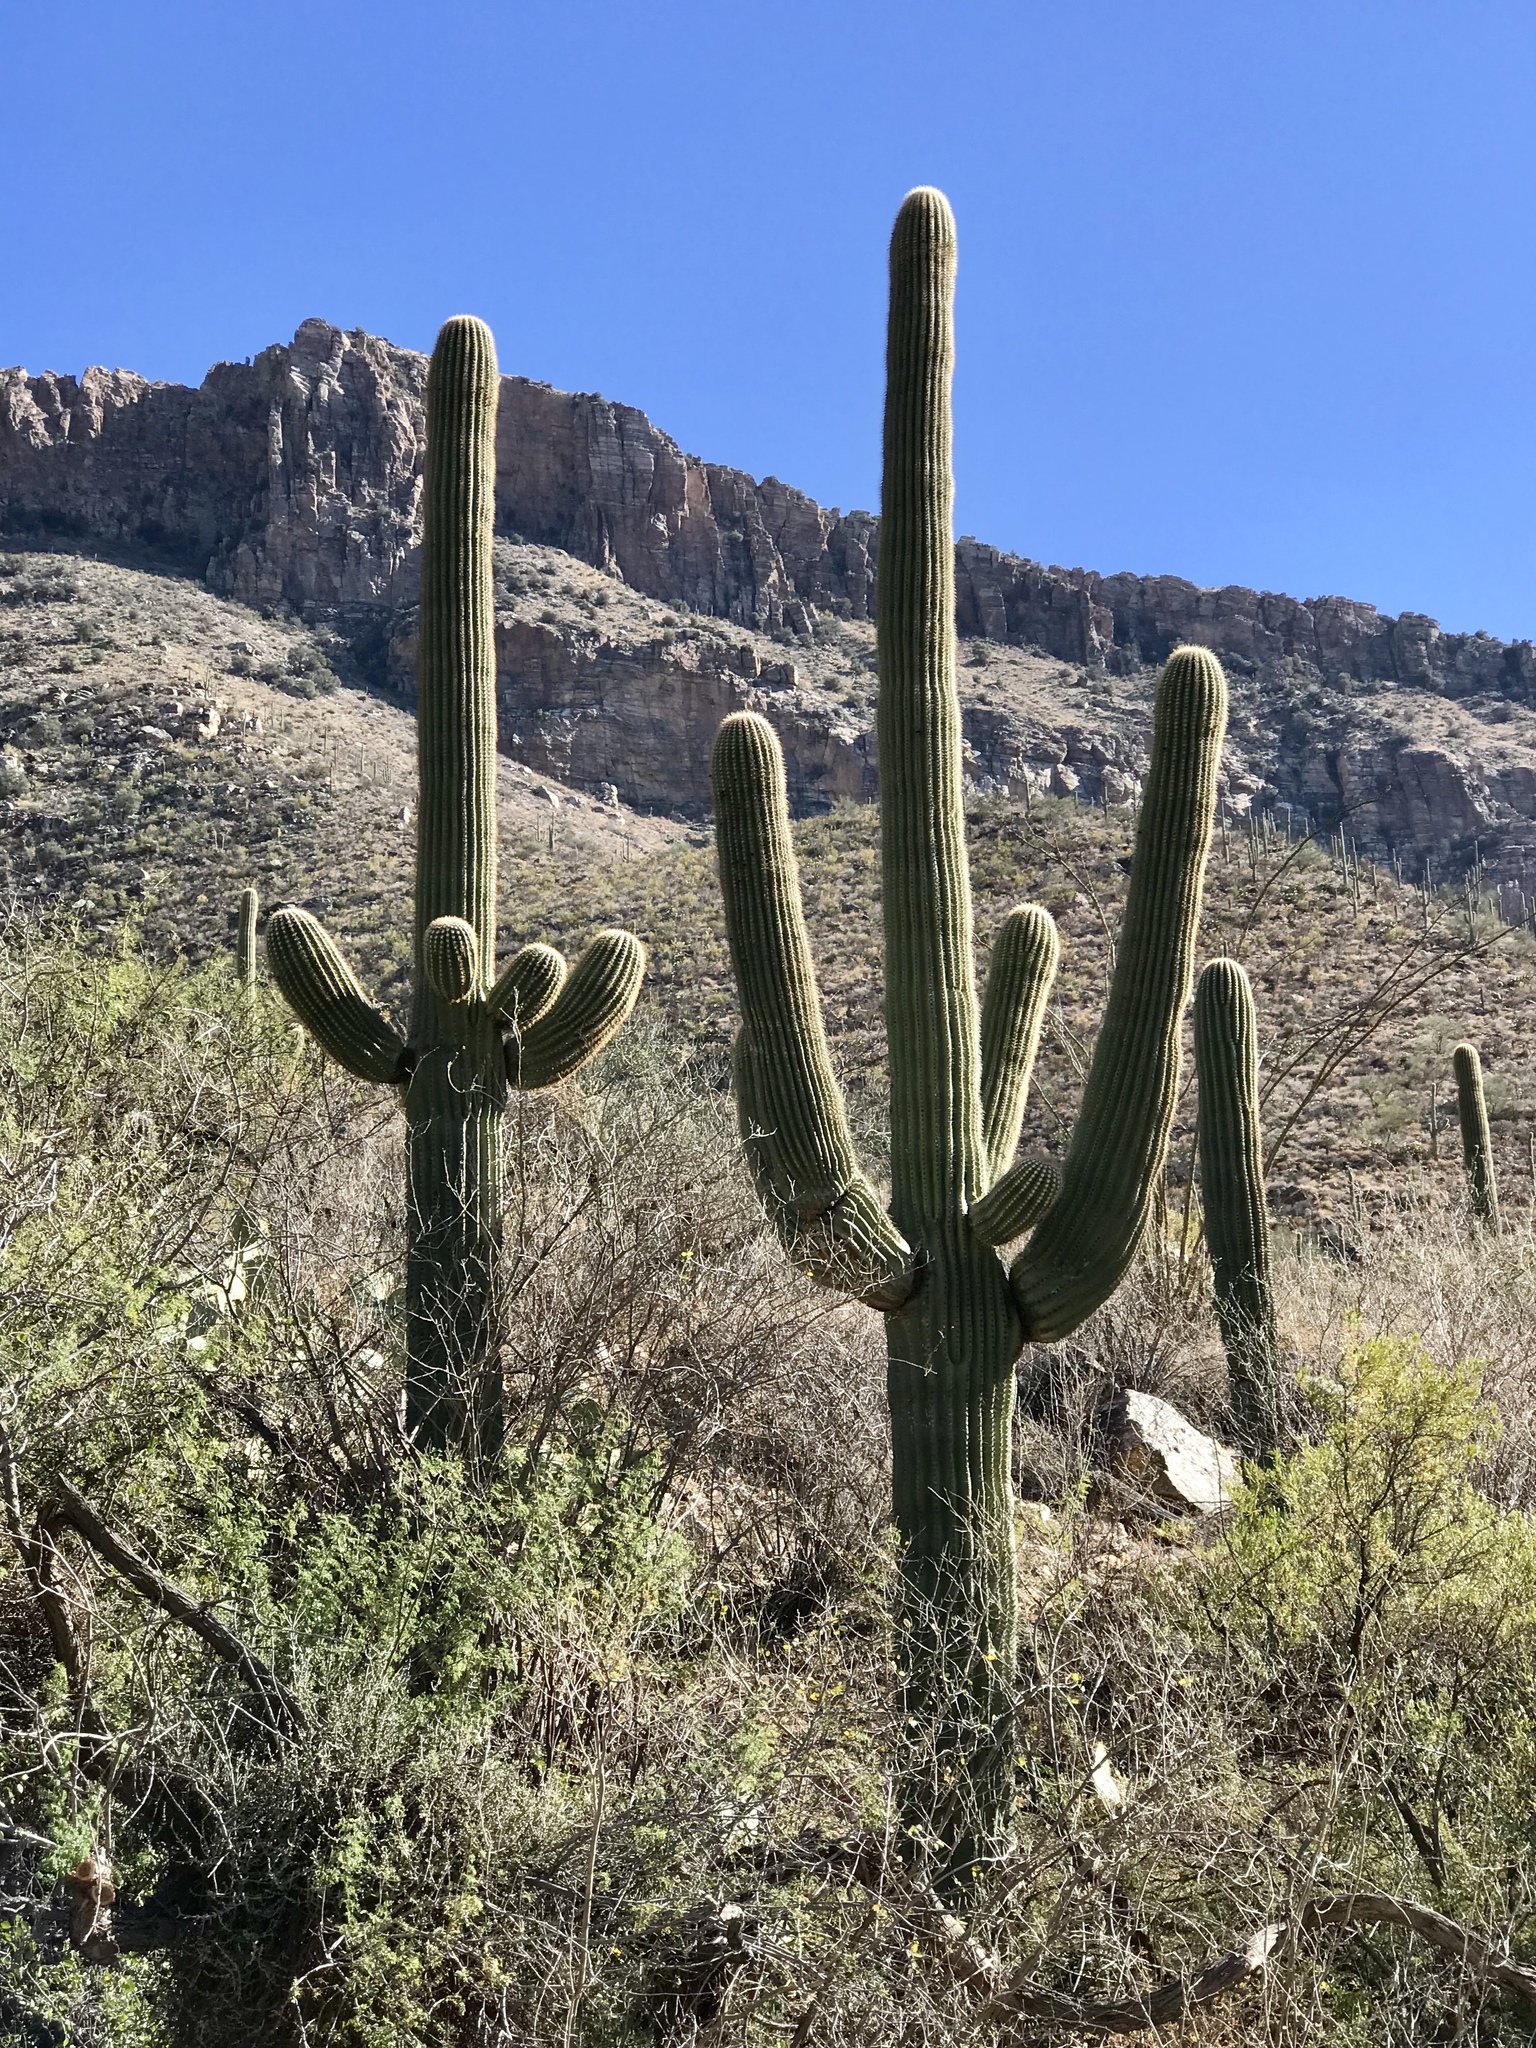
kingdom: Plantae
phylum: Tracheophyta
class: Magnoliopsida
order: Caryophyllales
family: Cactaceae
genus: Carnegiea
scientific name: Carnegiea gigantea
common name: Saguaro
